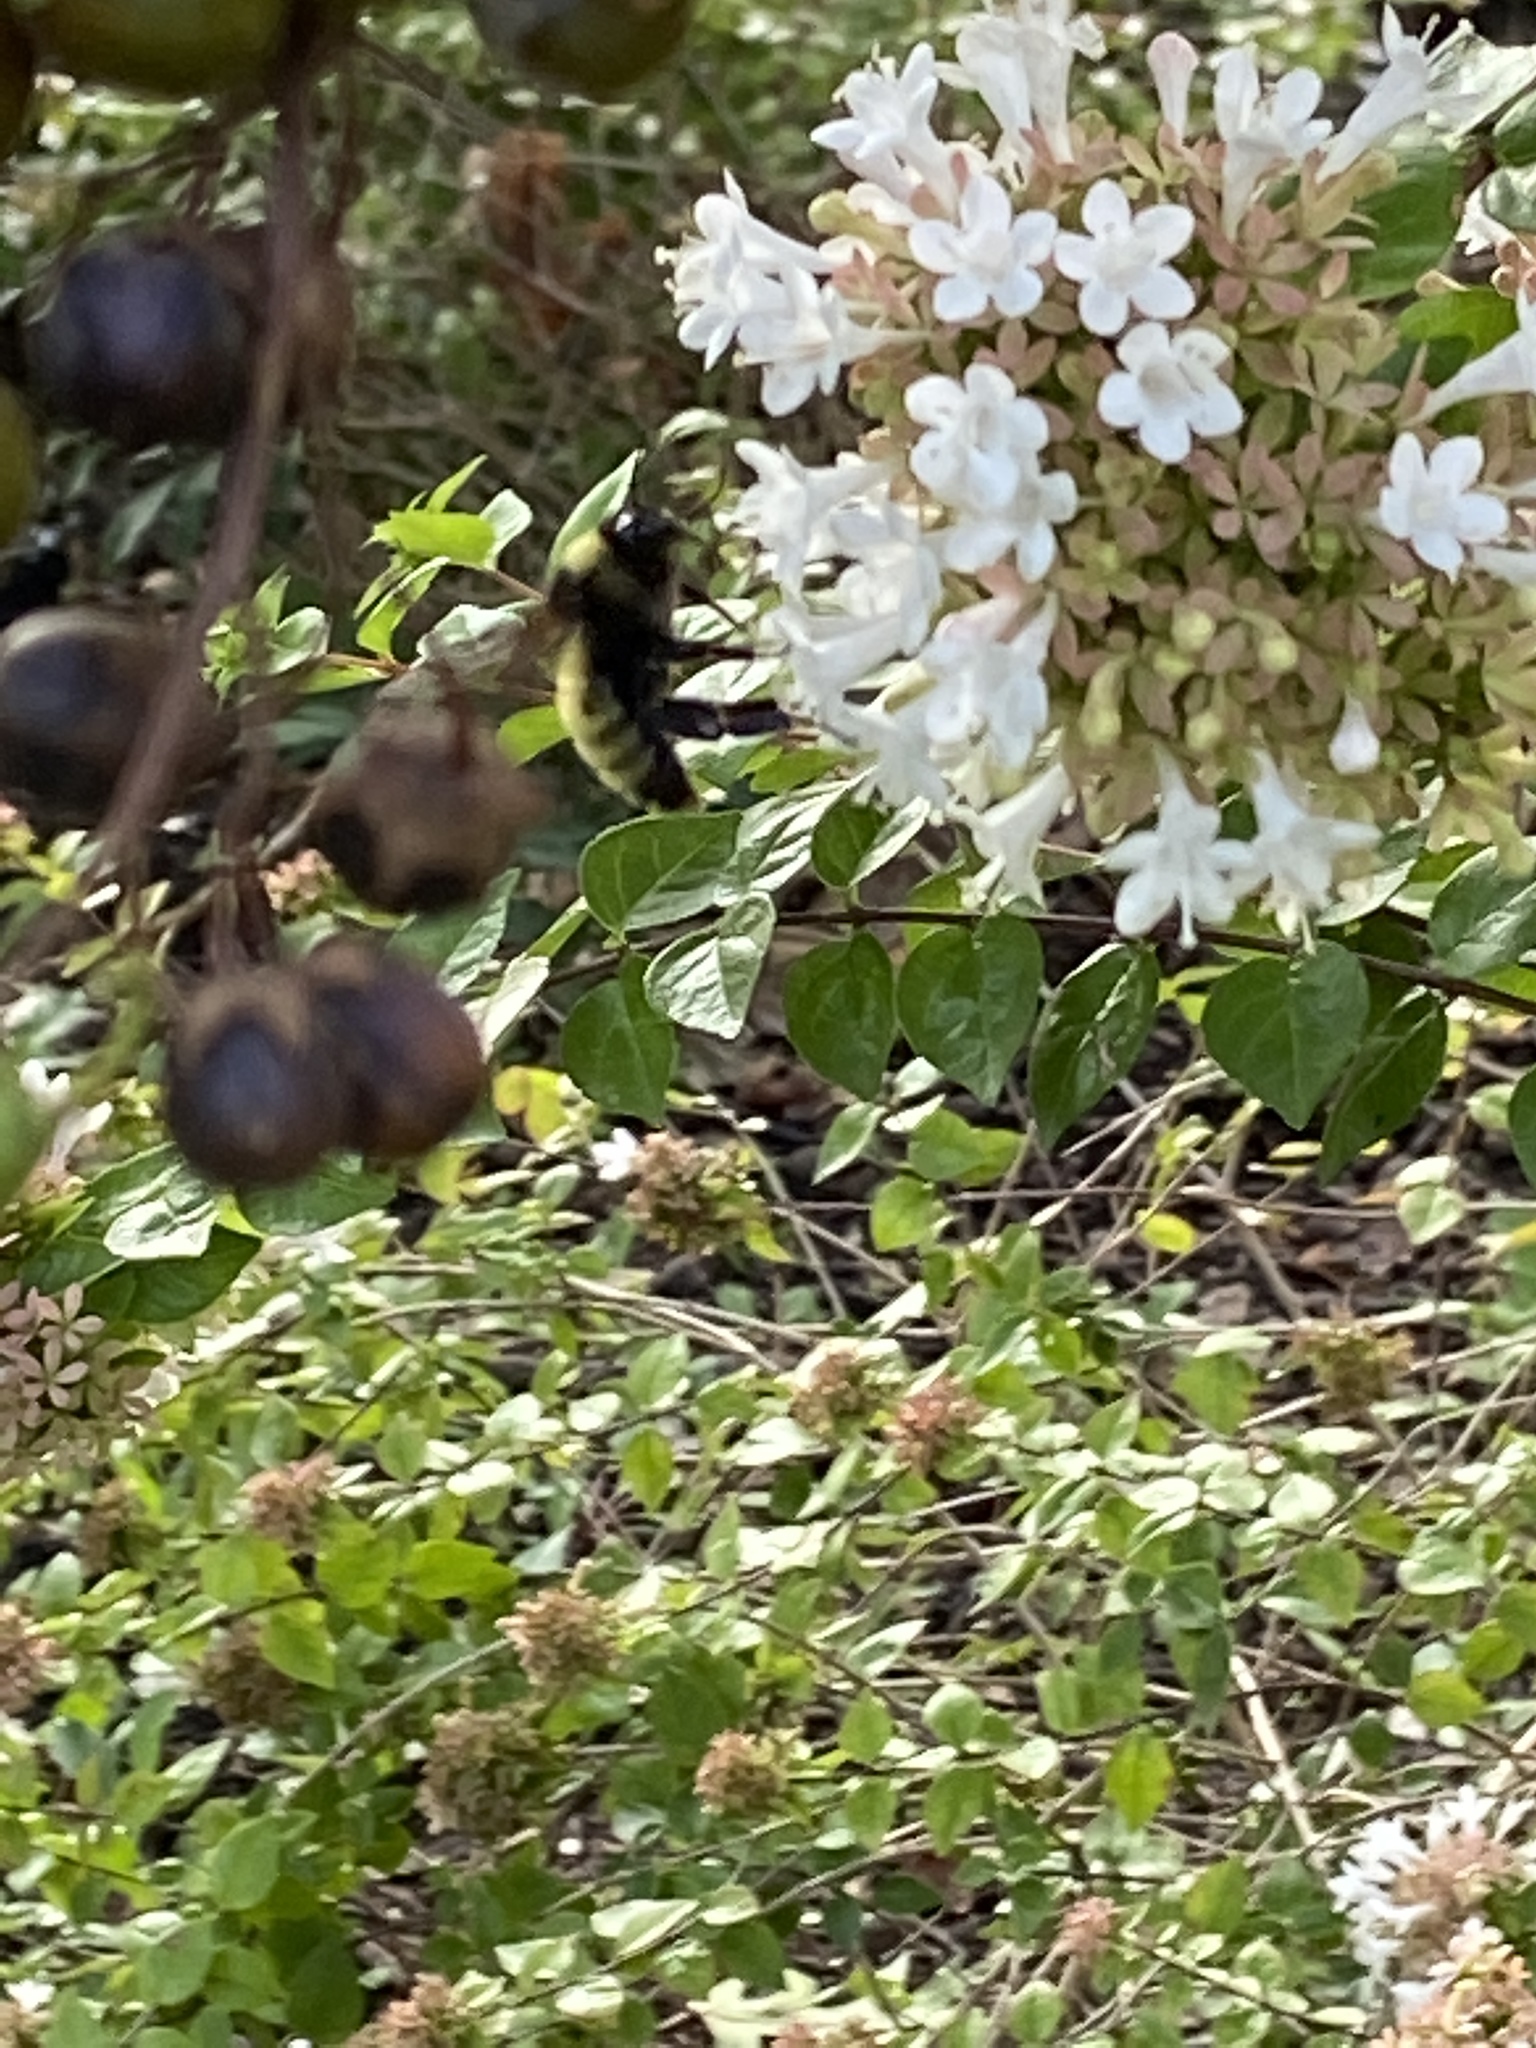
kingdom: Animalia
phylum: Arthropoda
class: Insecta
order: Hymenoptera
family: Apidae
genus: Bombus
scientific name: Bombus pensylvanicus
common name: Bumble bee
